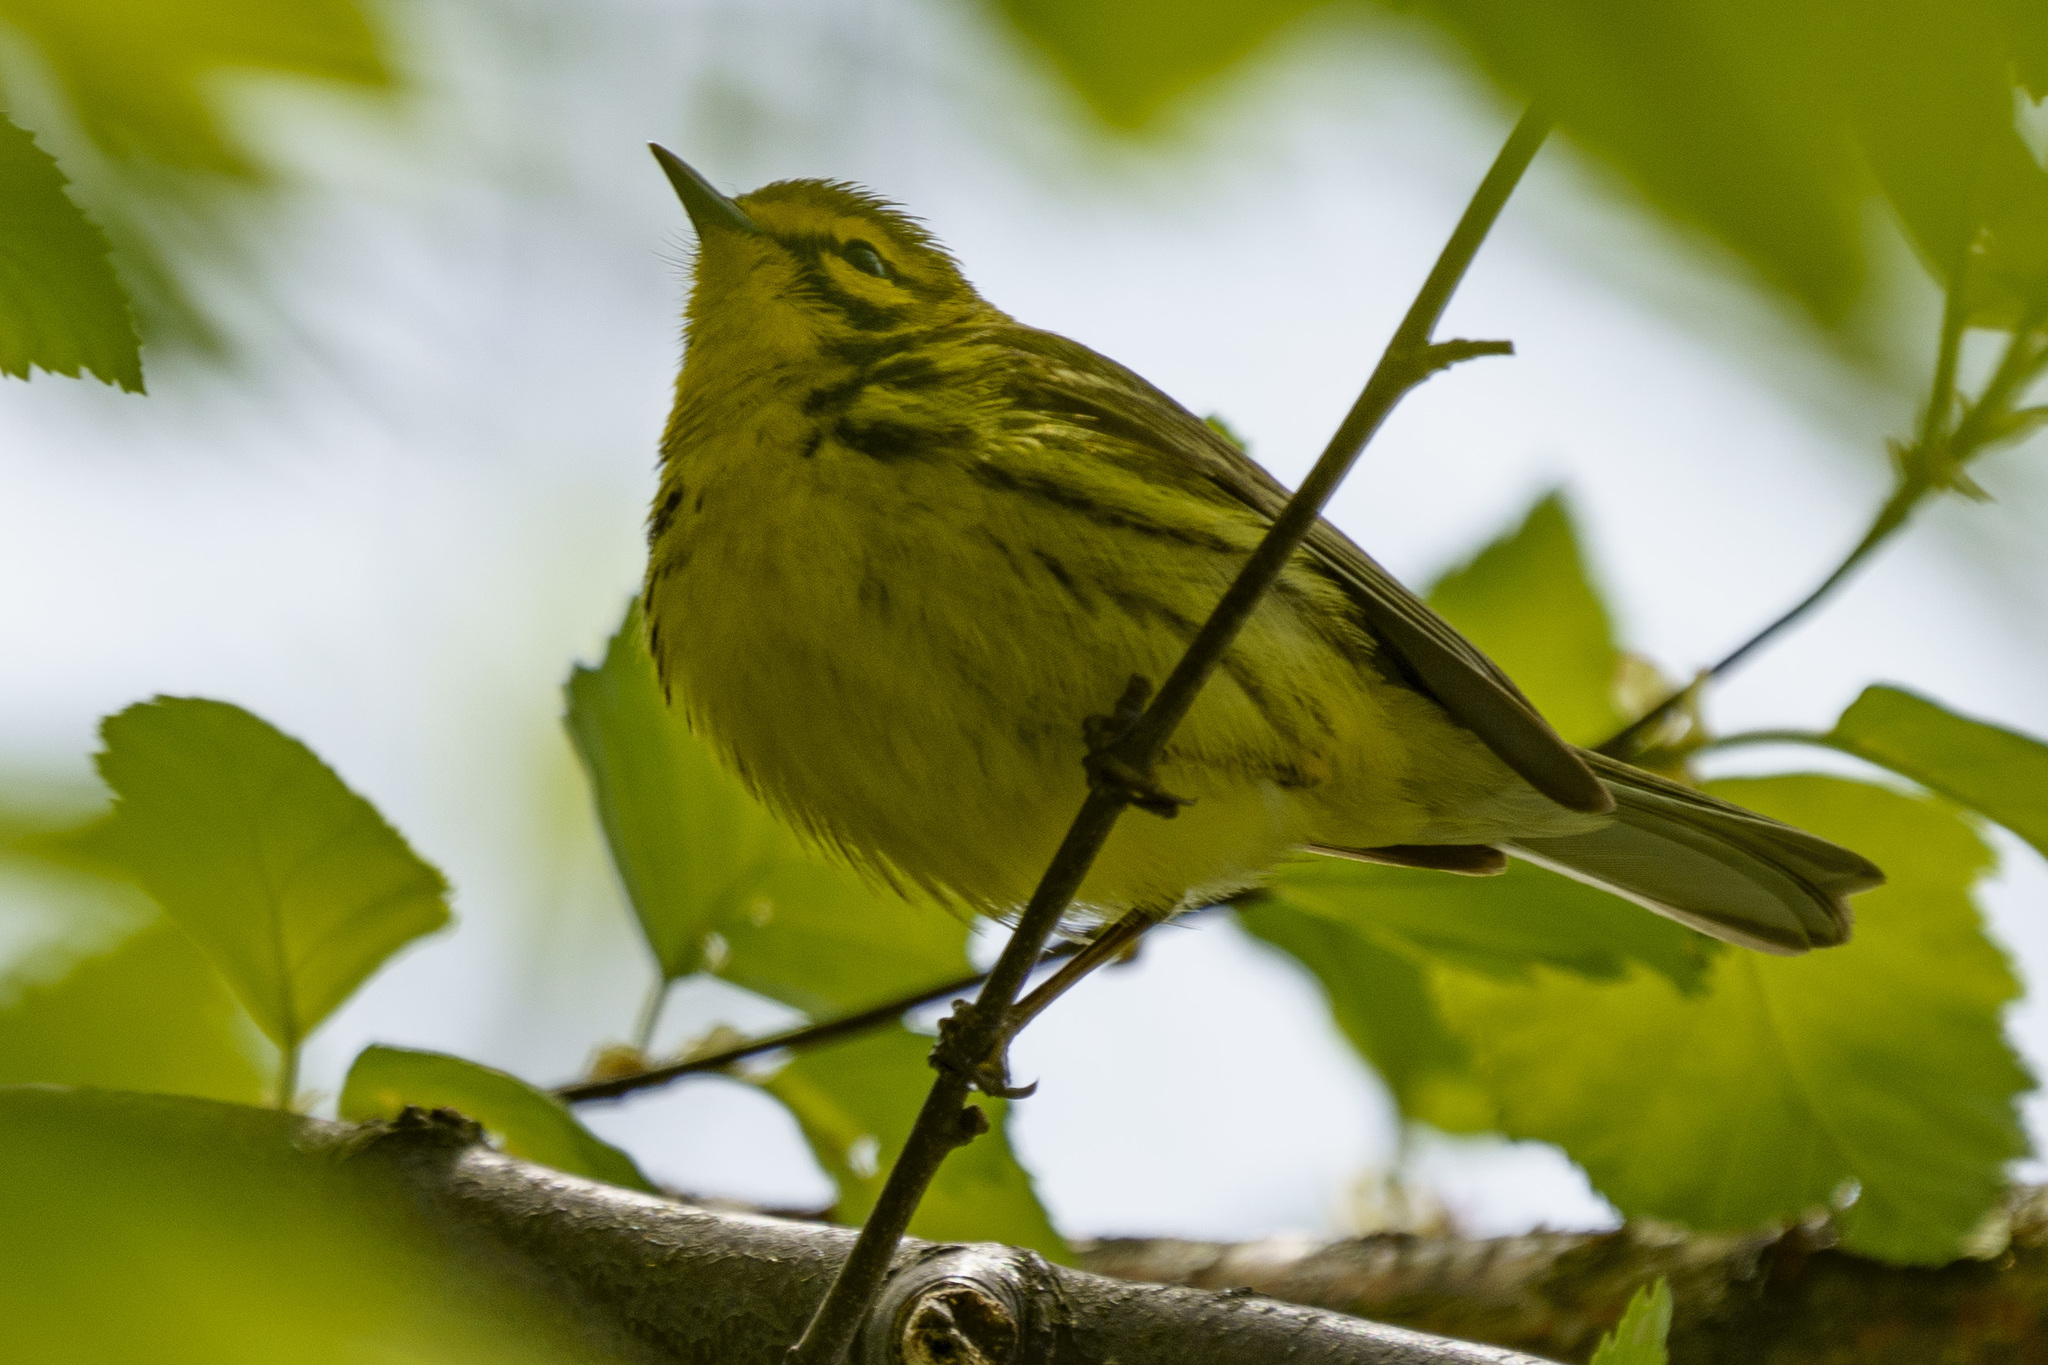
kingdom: Animalia
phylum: Chordata
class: Aves
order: Passeriformes
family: Parulidae
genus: Setophaga
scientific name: Setophaga discolor
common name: Prairie warbler
